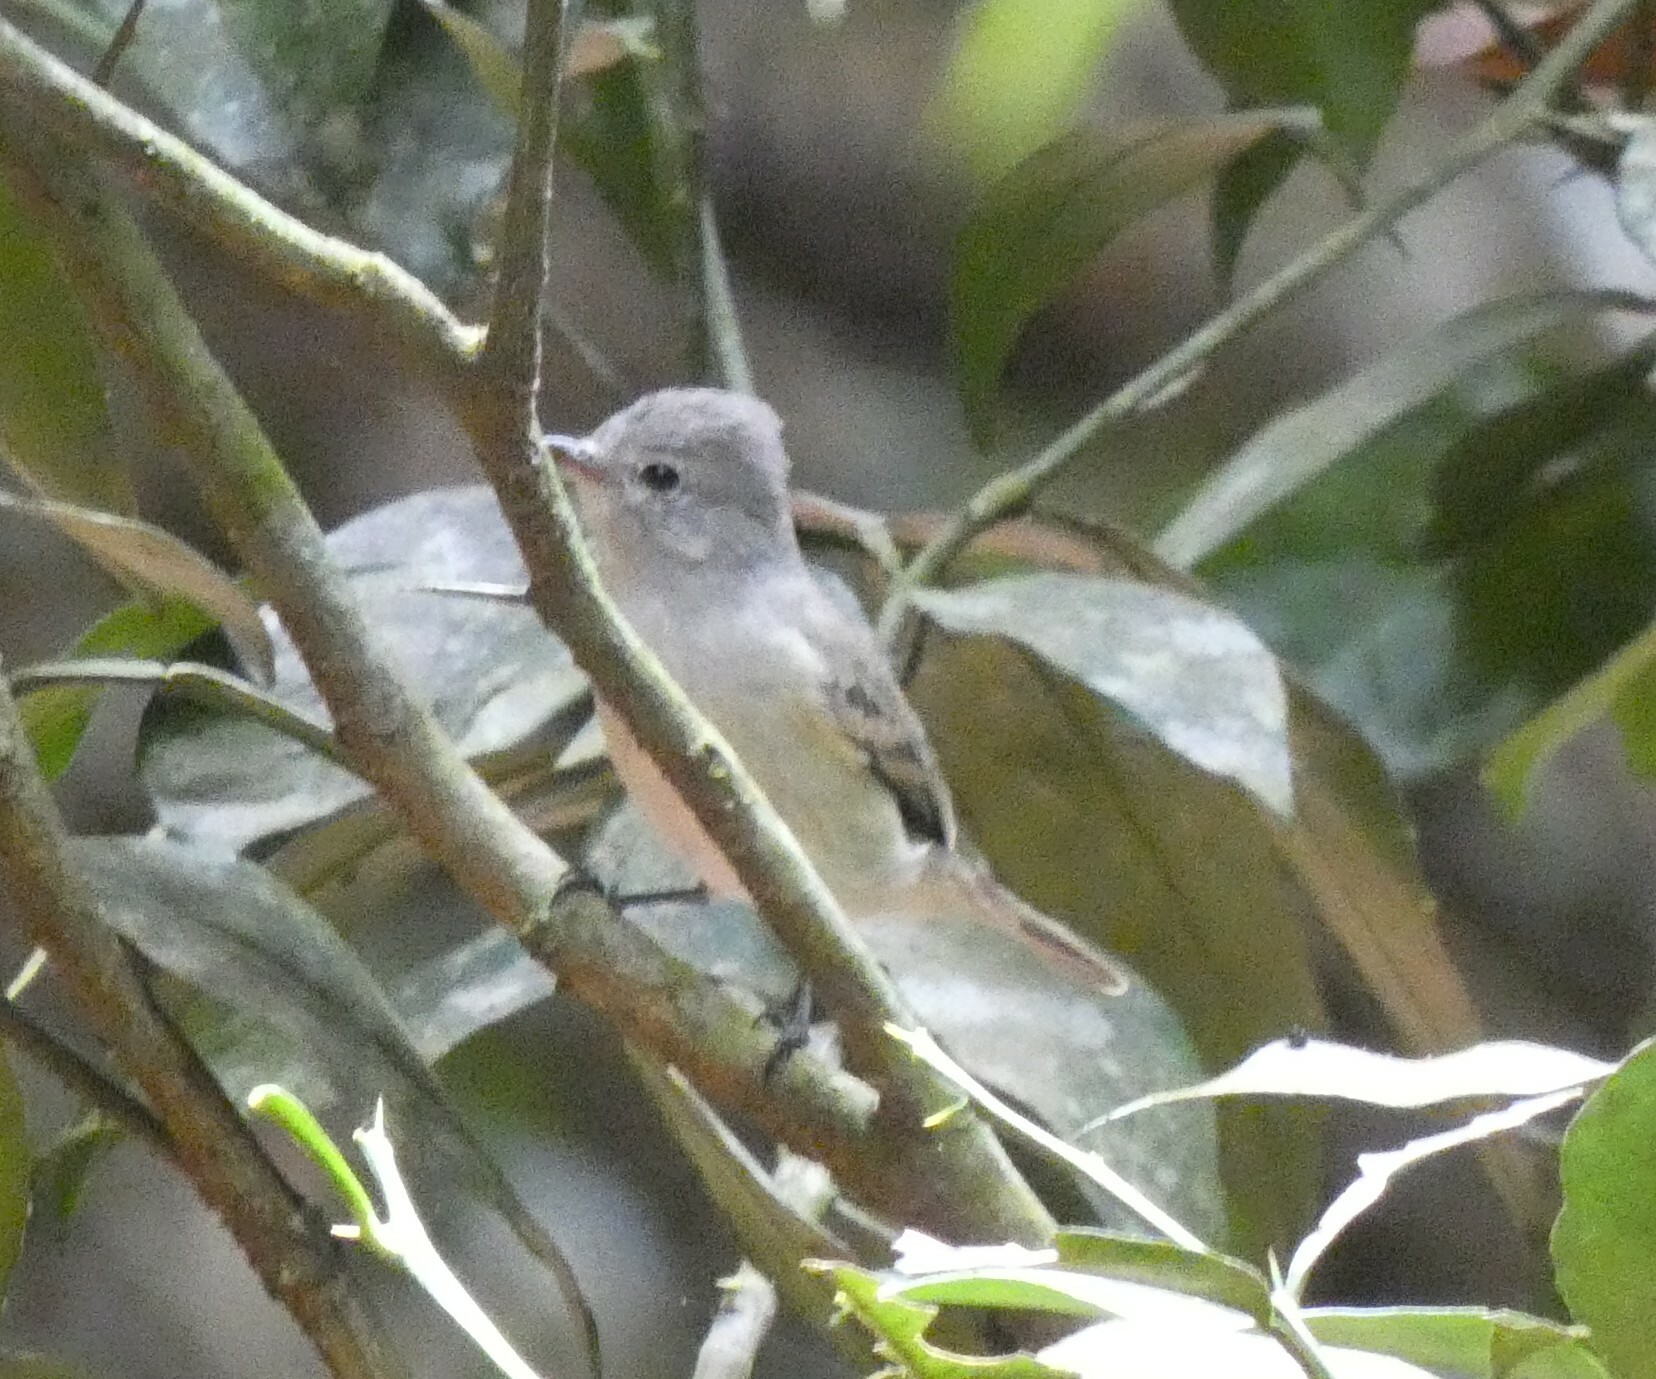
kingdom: Animalia
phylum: Chordata
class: Aves
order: Passeriformes
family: Tyrannidae
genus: Camptostoma
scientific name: Camptostoma obsoletum
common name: Southern beardless-tyrannulet
